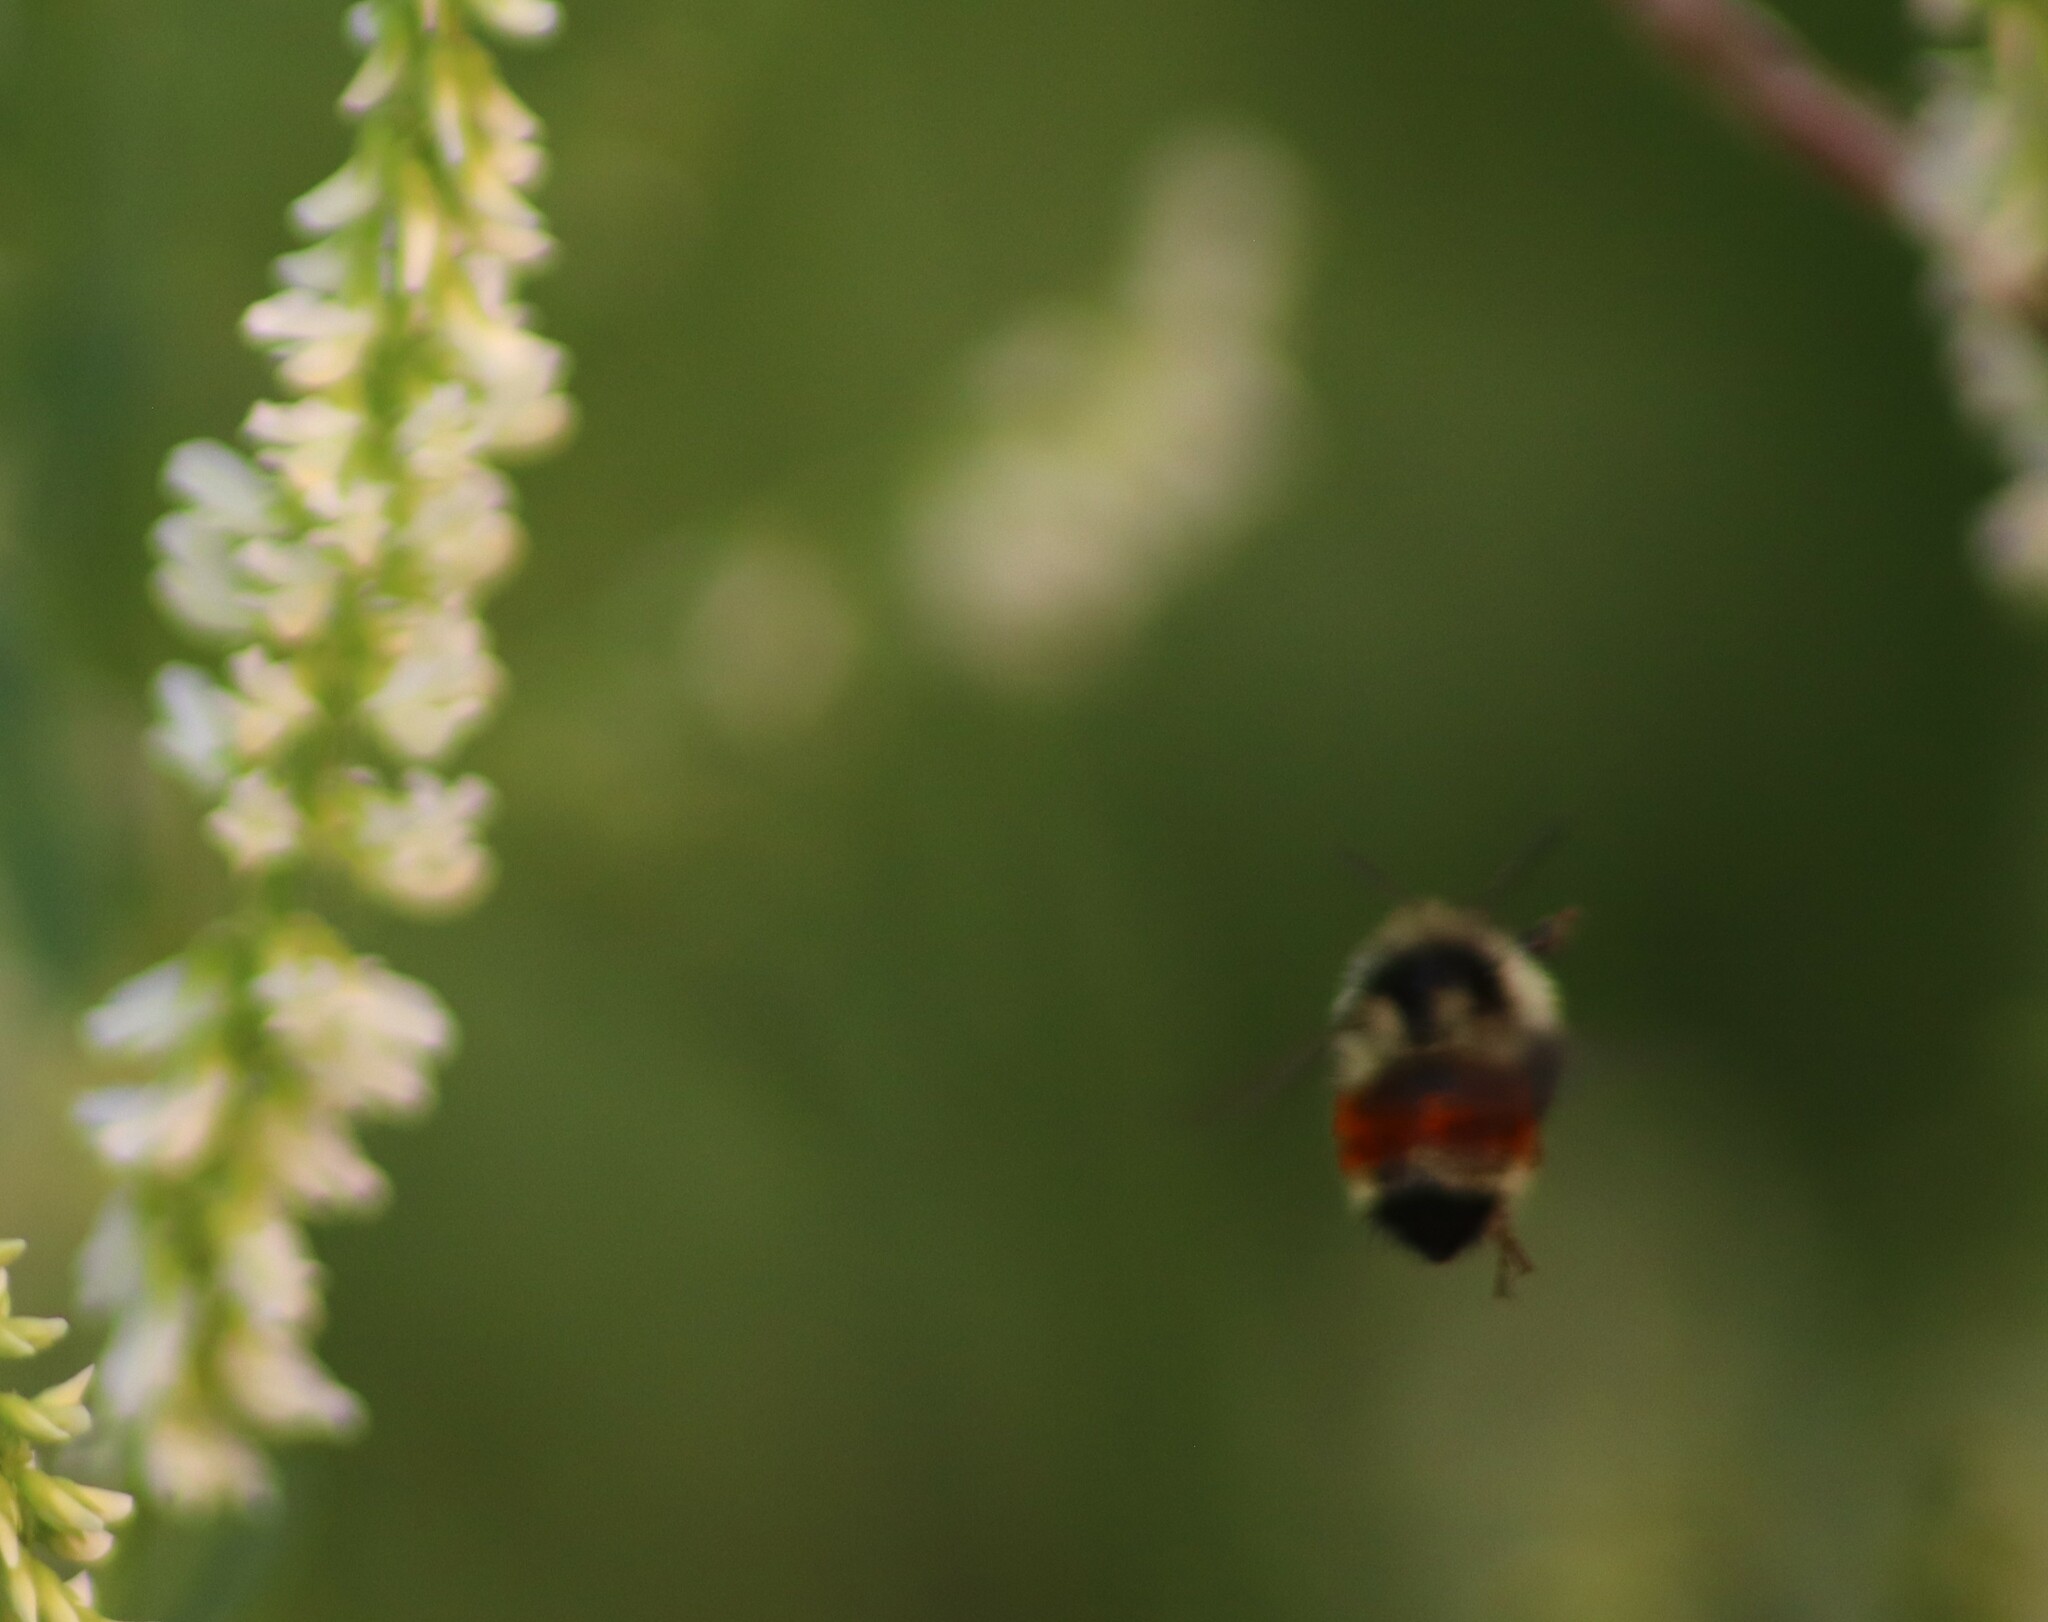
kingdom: Animalia
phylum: Arthropoda
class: Insecta
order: Hymenoptera
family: Apidae
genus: Bombus
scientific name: Bombus ternarius
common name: Tri-colored bumble bee
